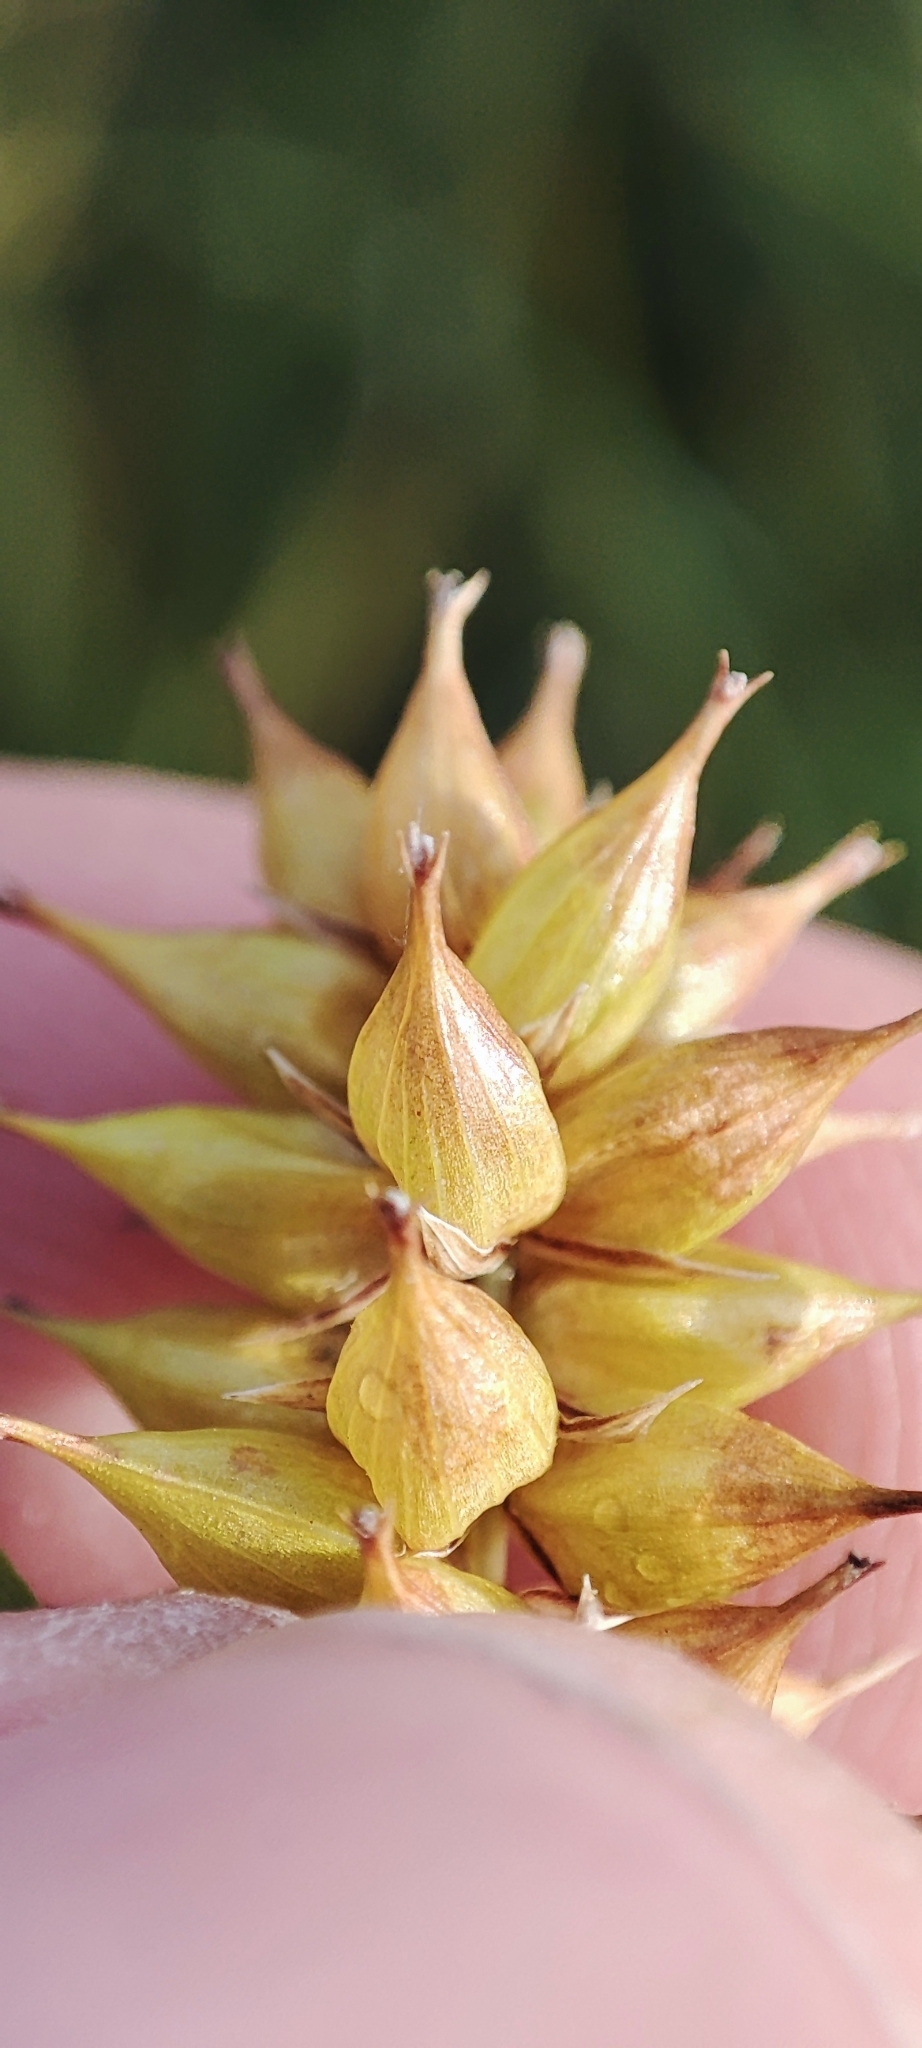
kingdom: Plantae
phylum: Tracheophyta
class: Liliopsida
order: Poales
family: Cyperaceae
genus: Carex
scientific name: Carex vesicaria
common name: Bladder-sedge
